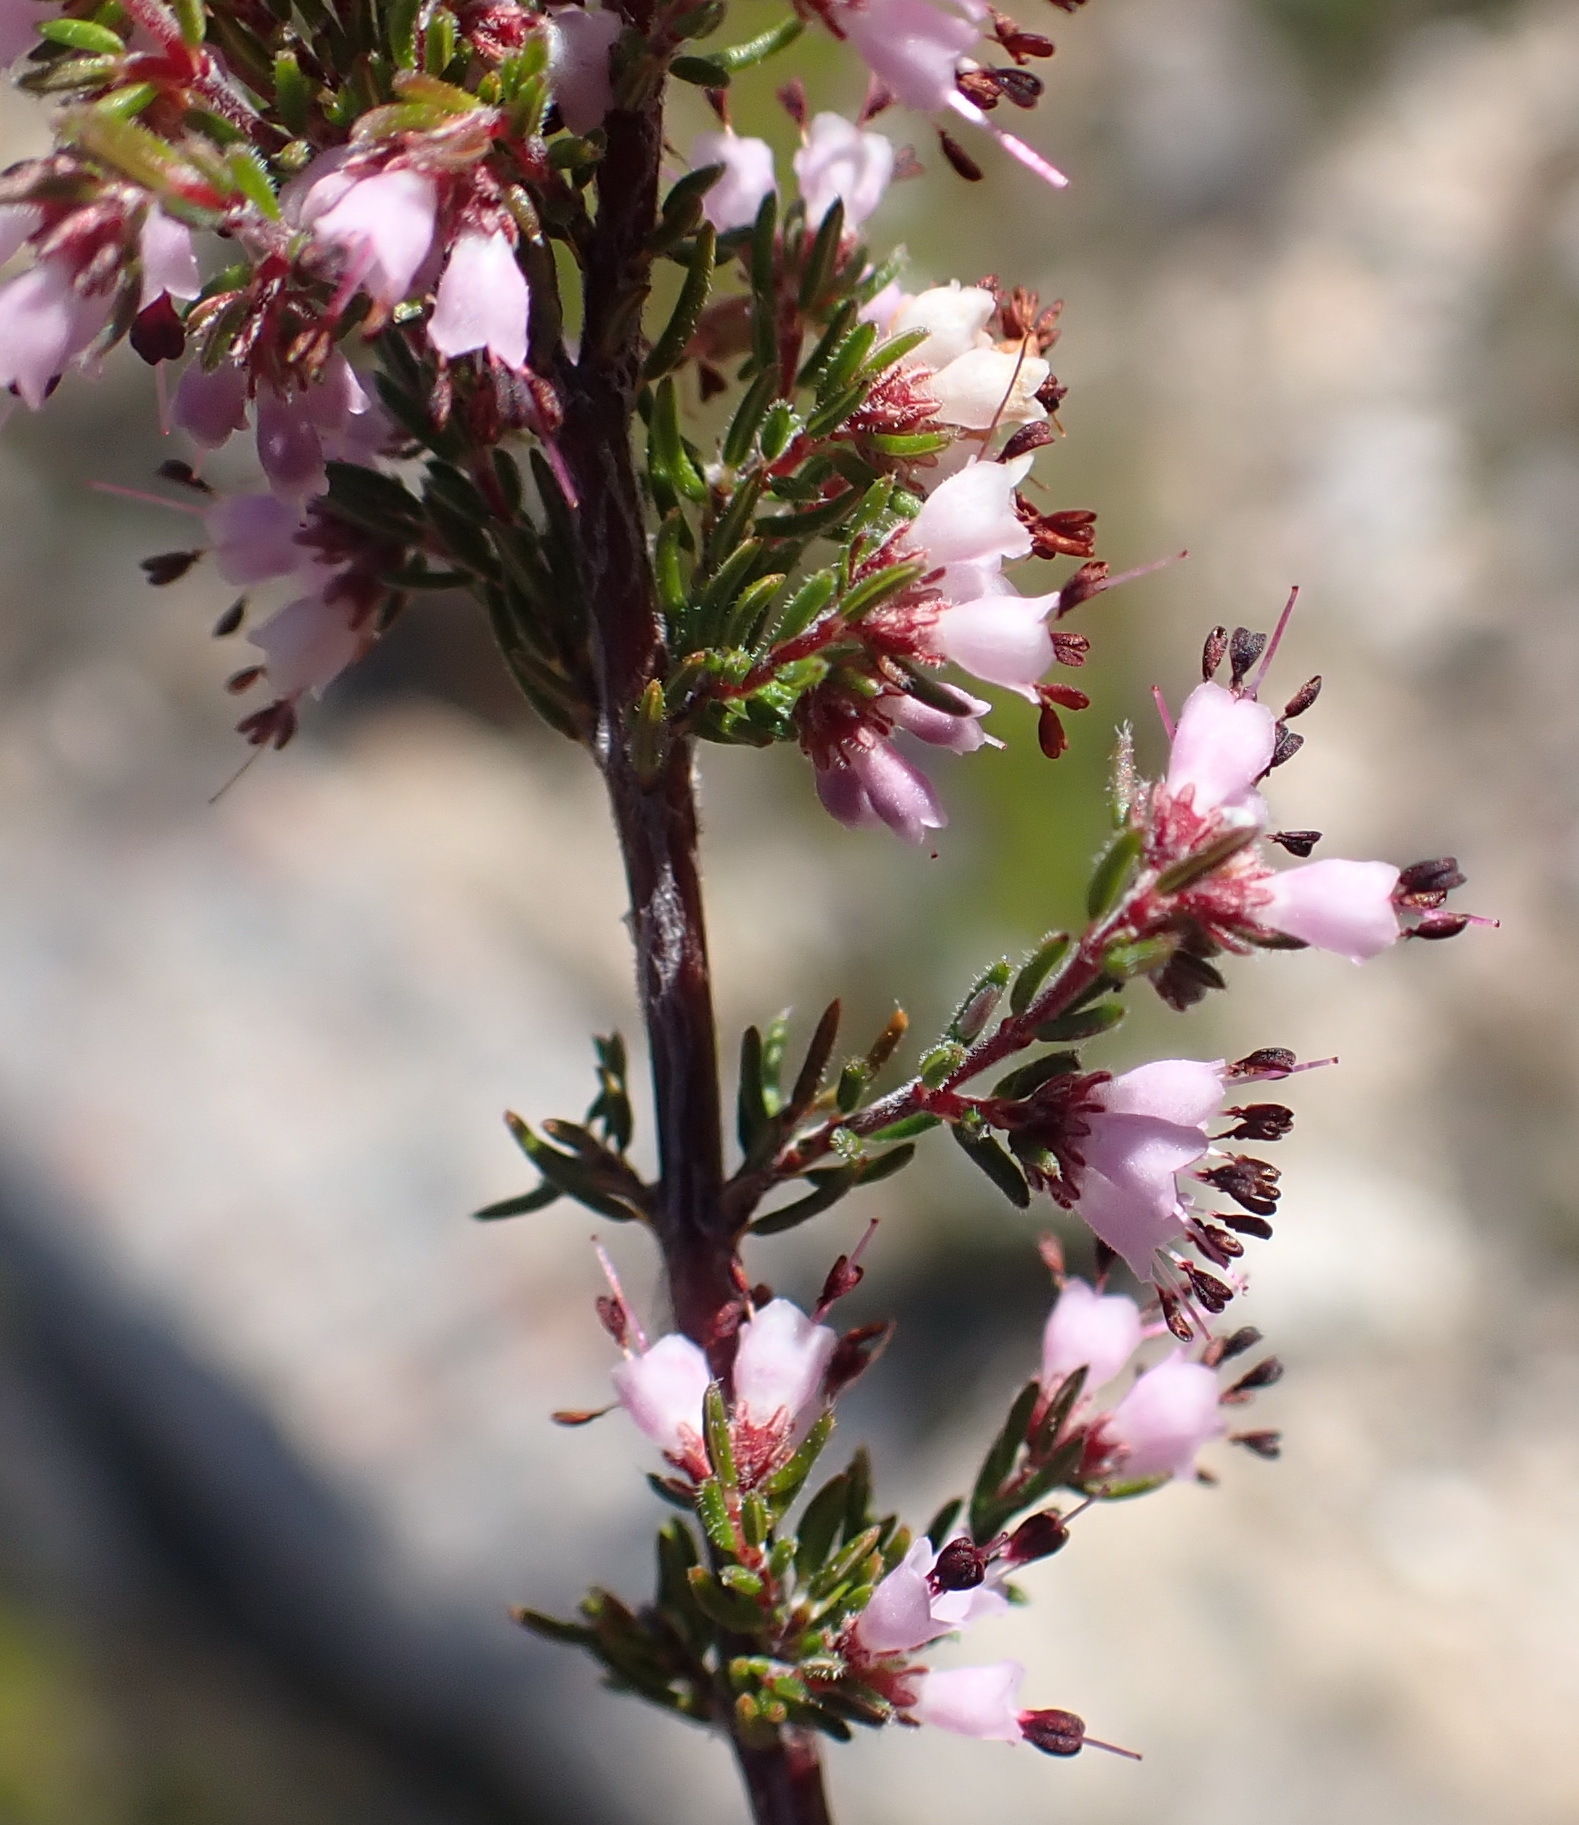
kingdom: Plantae
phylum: Tracheophyta
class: Magnoliopsida
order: Ericales
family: Ericaceae
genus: Erica
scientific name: Erica anguliger
